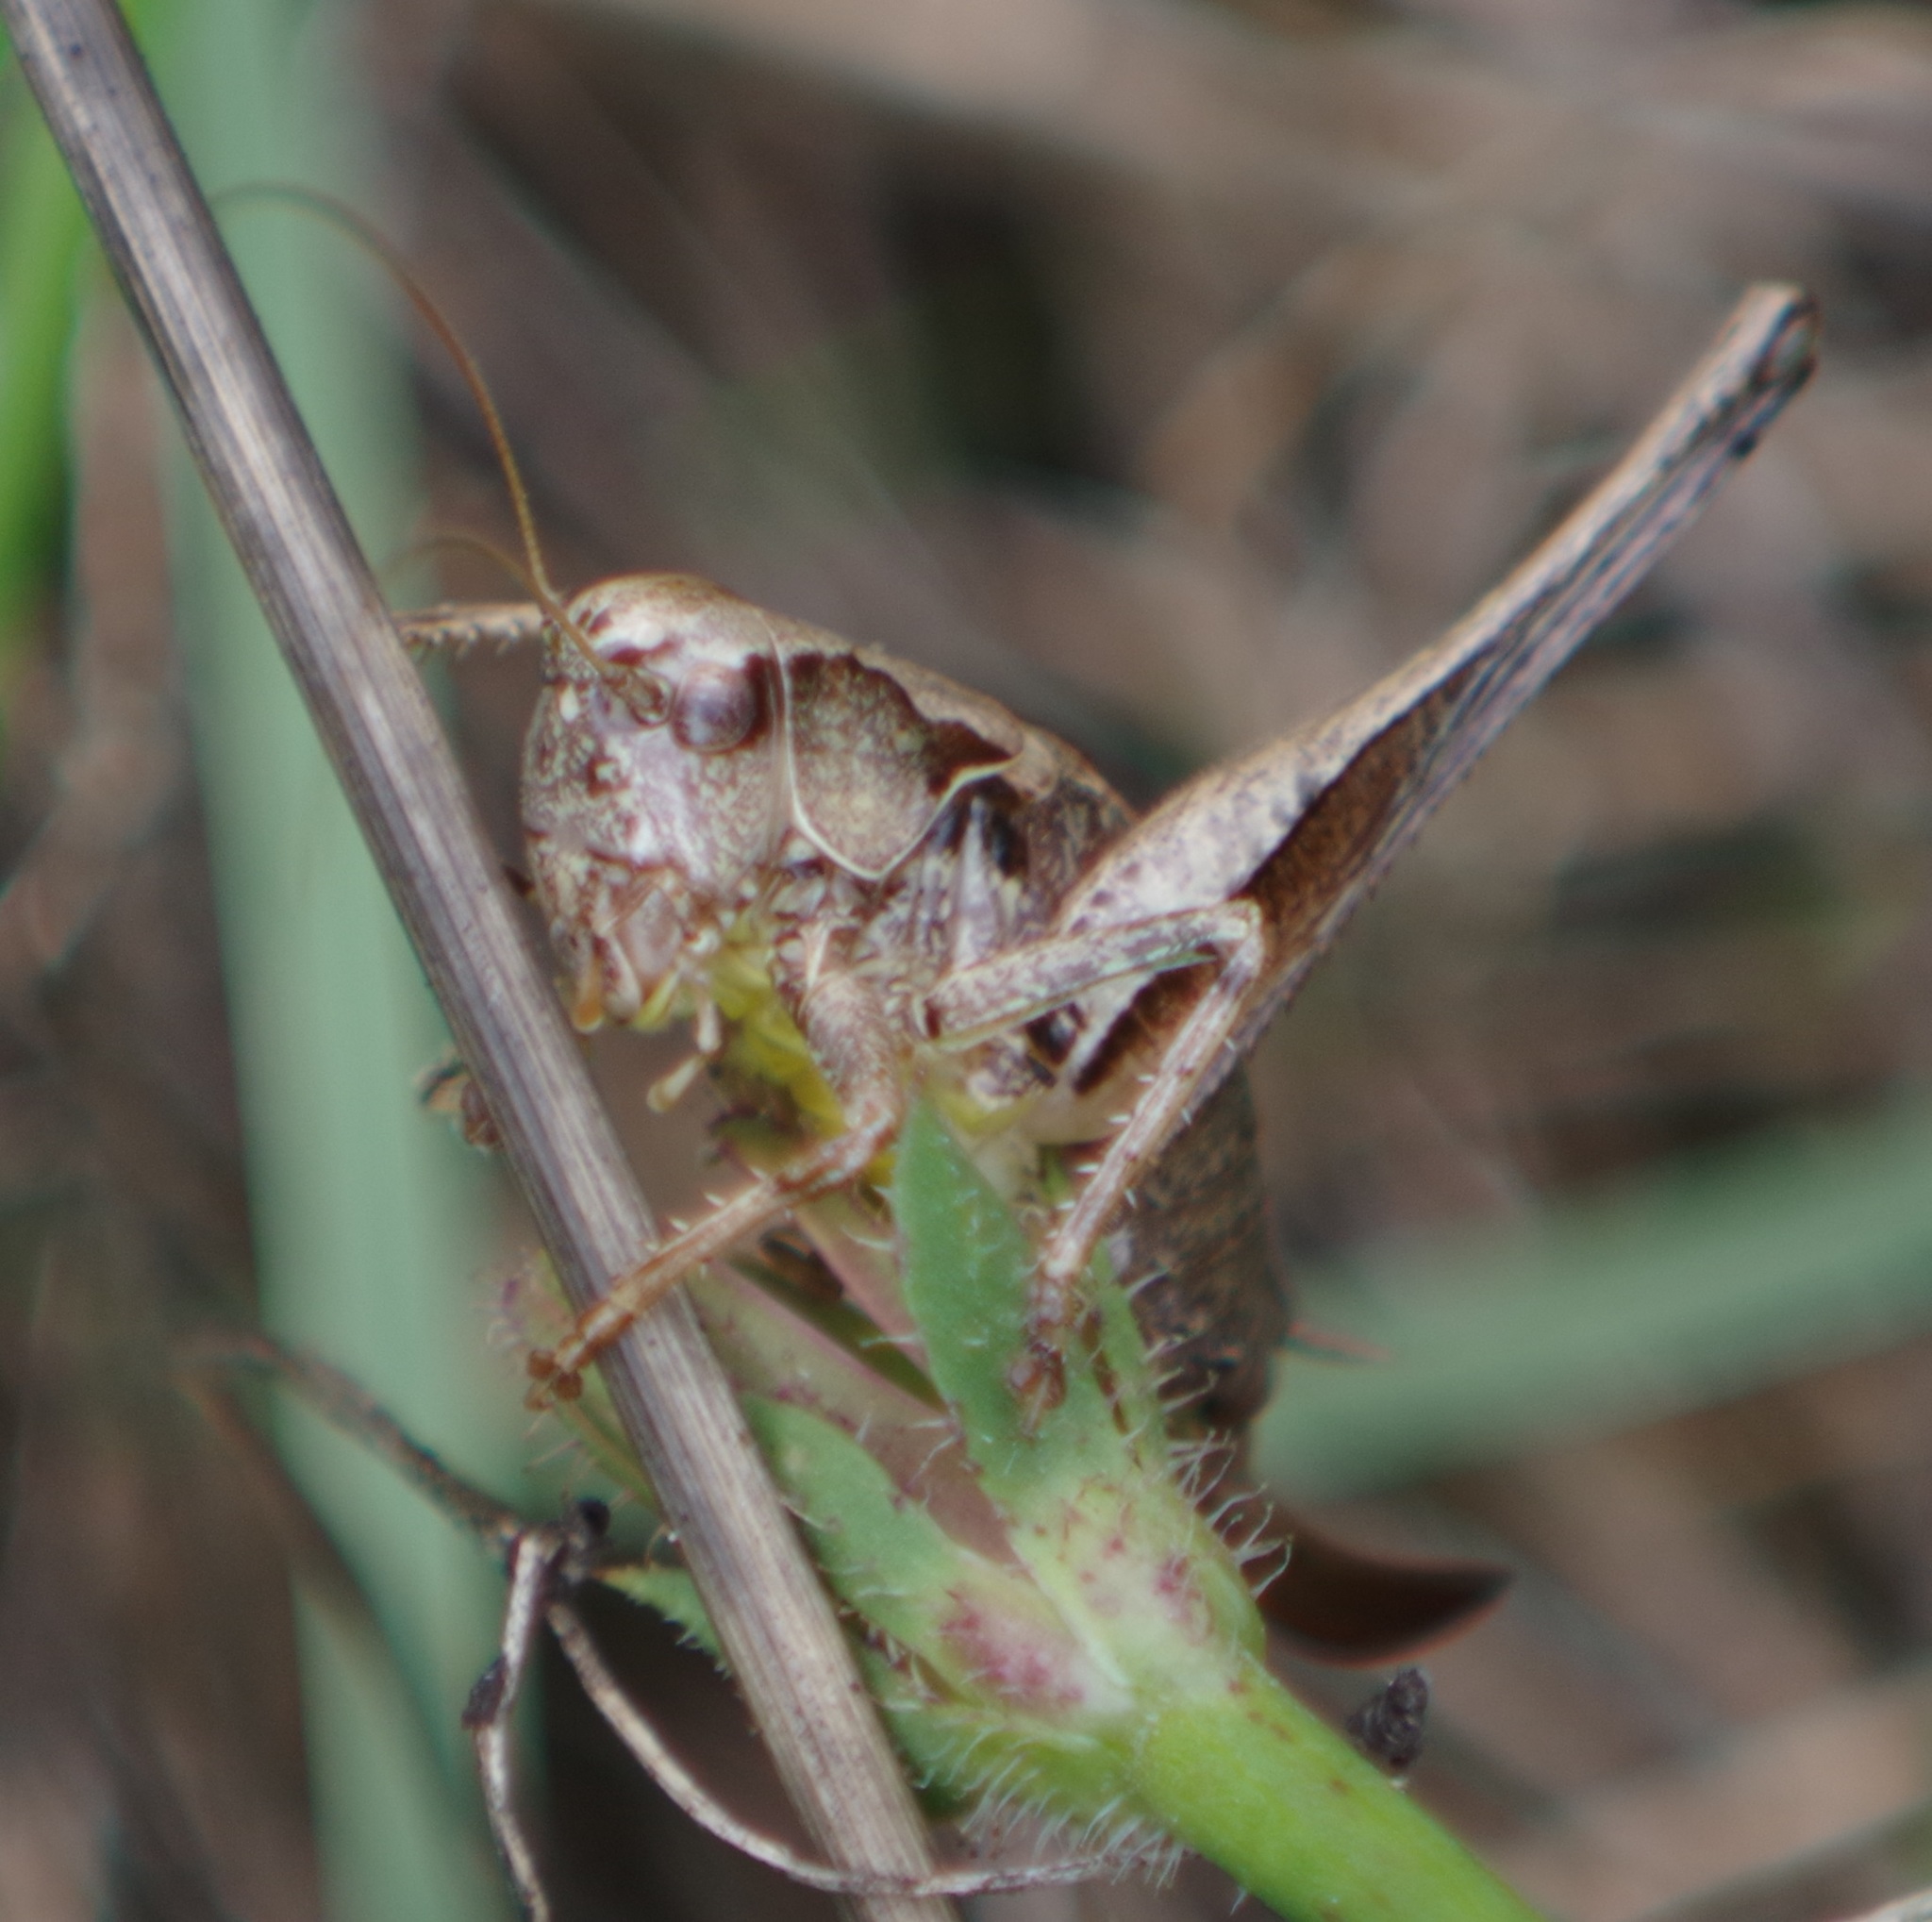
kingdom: Animalia
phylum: Arthropoda
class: Insecta
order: Orthoptera
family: Tettigoniidae
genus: Pholidoptera
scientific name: Pholidoptera griseoaptera
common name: Dark bush-cricket
